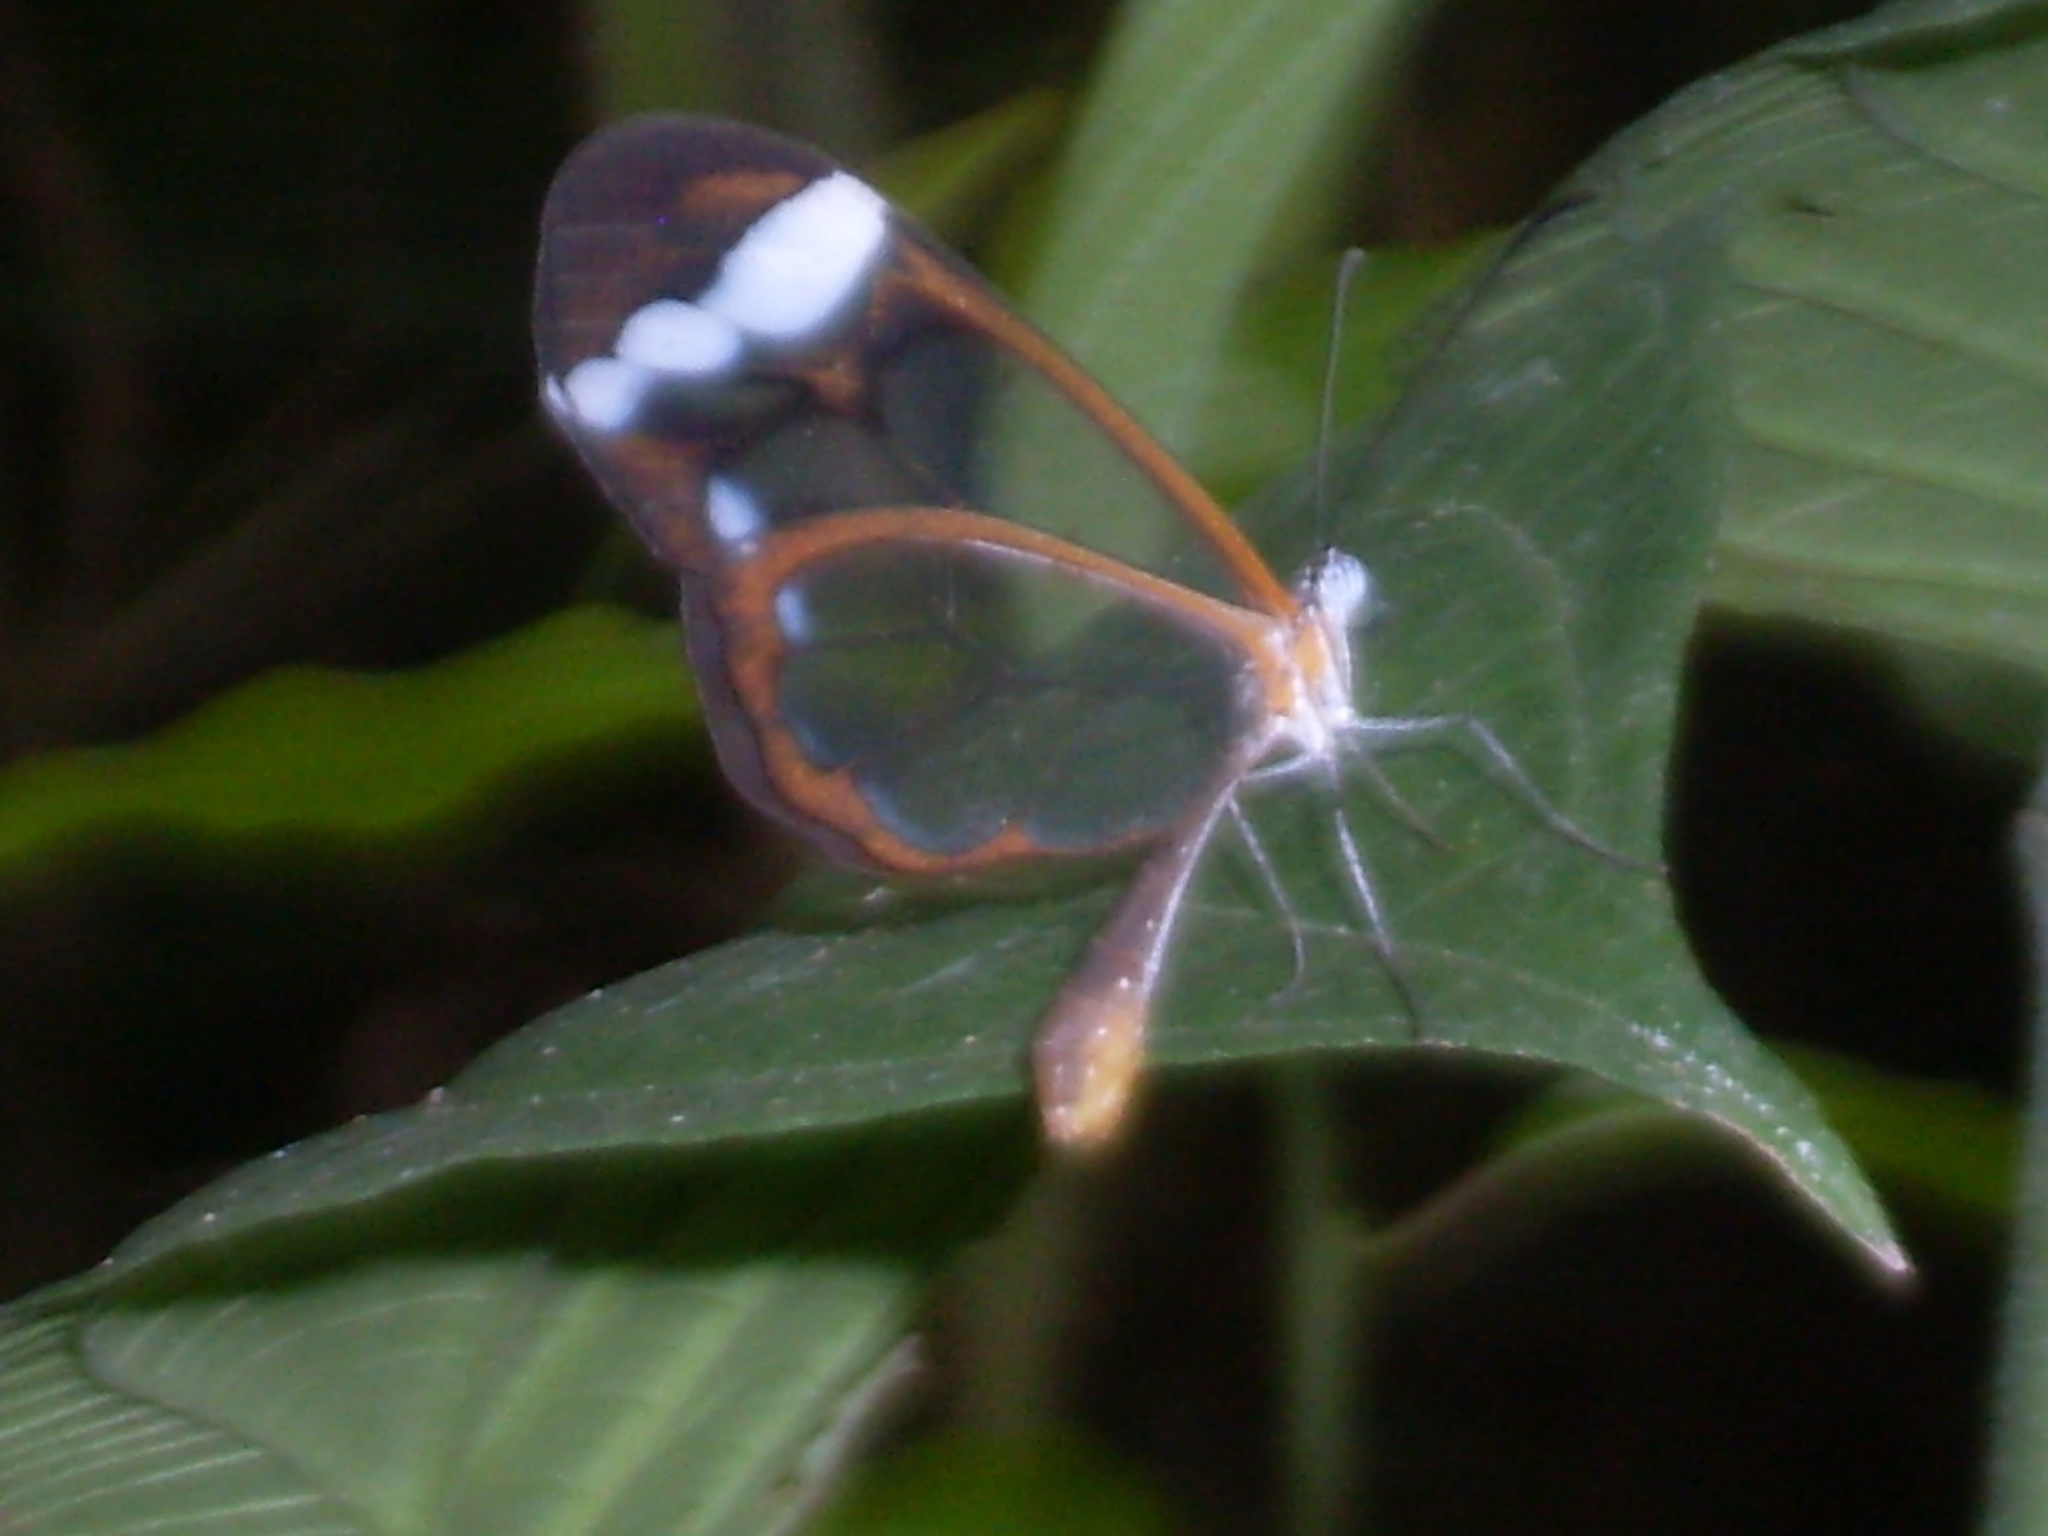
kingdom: Animalia
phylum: Arthropoda
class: Insecta
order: Lepidoptera
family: Nymphalidae
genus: Greta
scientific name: Greta cubana
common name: Cuban clearwing
